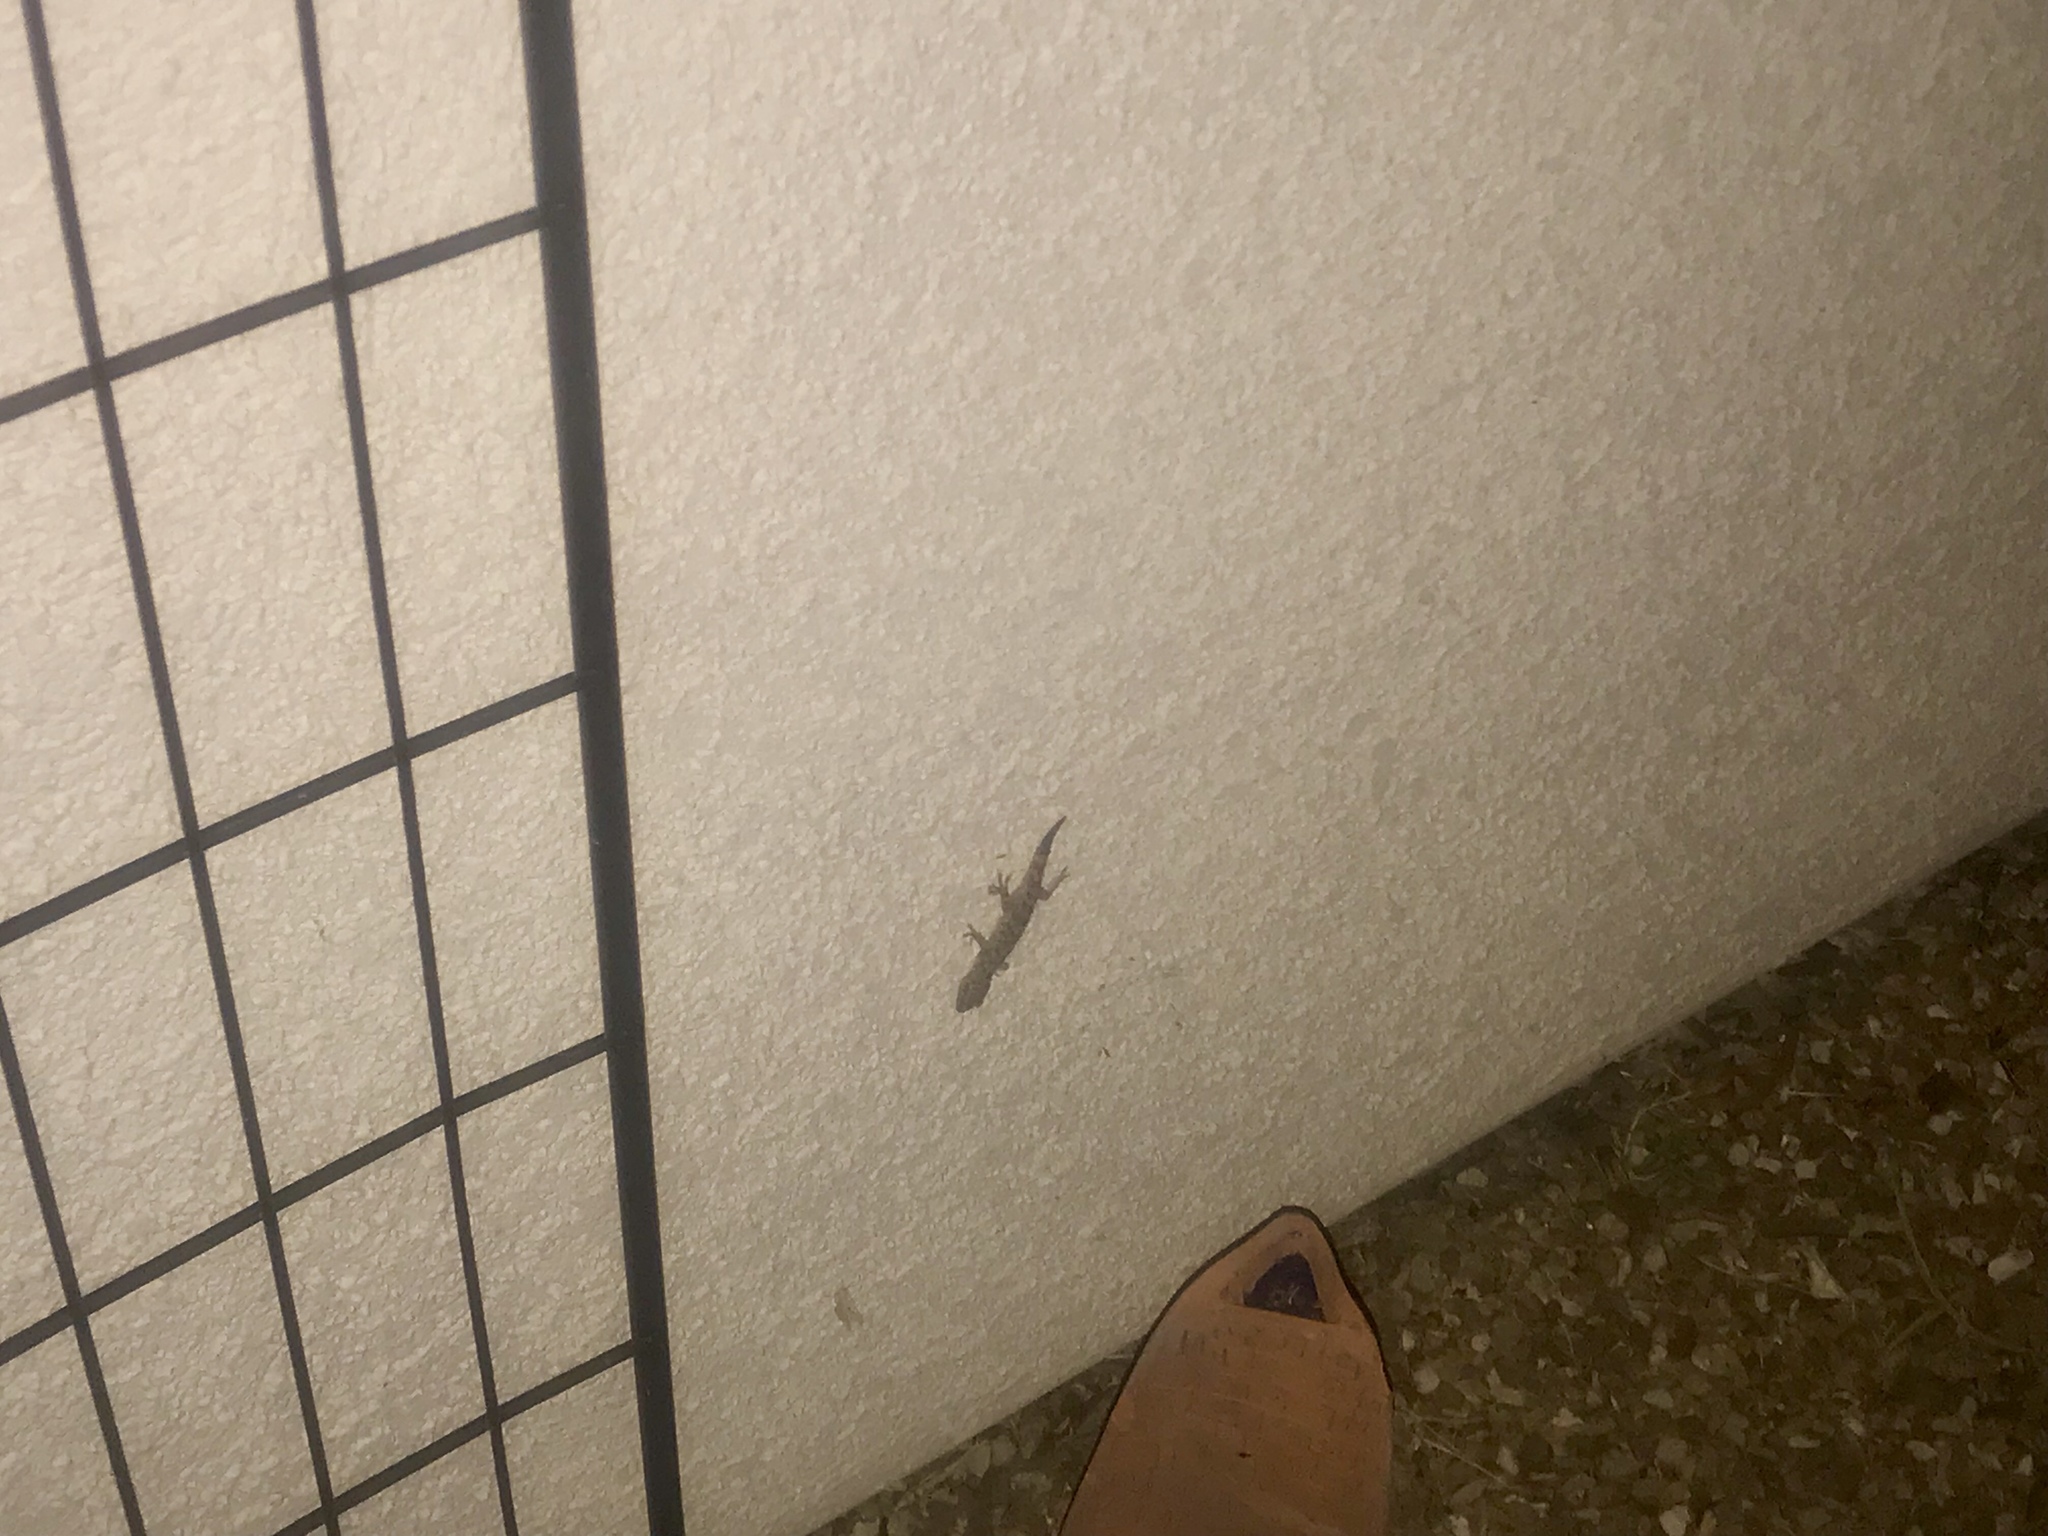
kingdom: Animalia
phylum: Chordata
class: Squamata
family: Gekkonidae
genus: Hemidactylus
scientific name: Hemidactylus turcicus
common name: Turkish gecko
